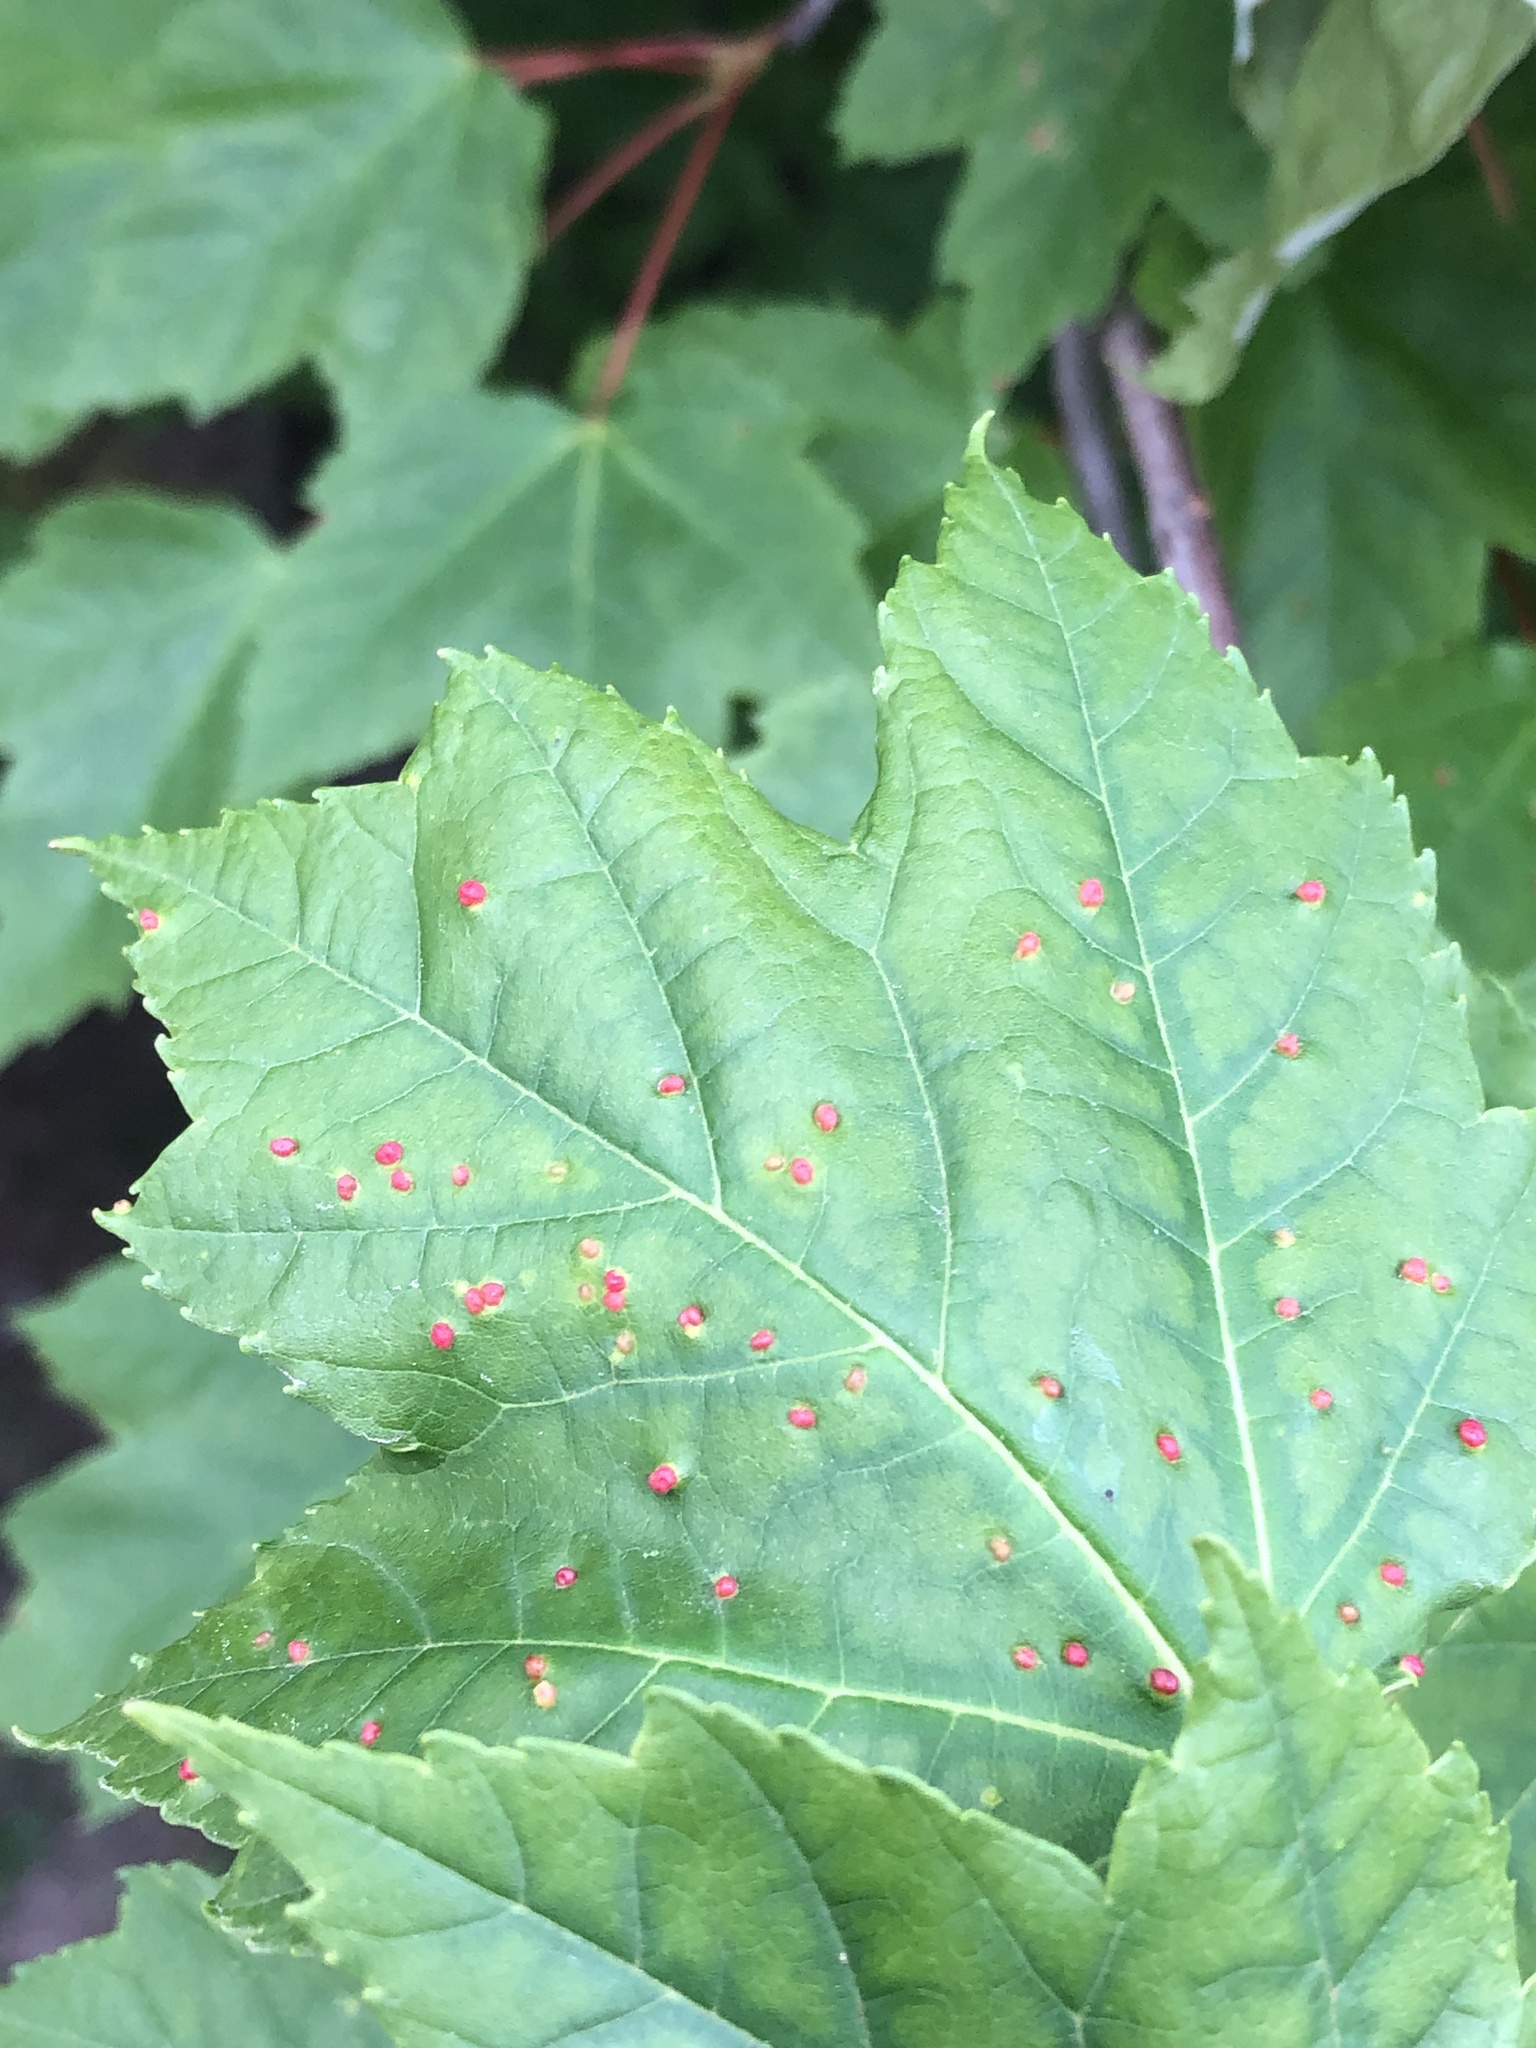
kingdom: Animalia
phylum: Arthropoda
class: Arachnida
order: Trombidiformes
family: Eriophyidae
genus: Vasates
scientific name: Vasates quadripedes
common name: Maple bladder gall mite
